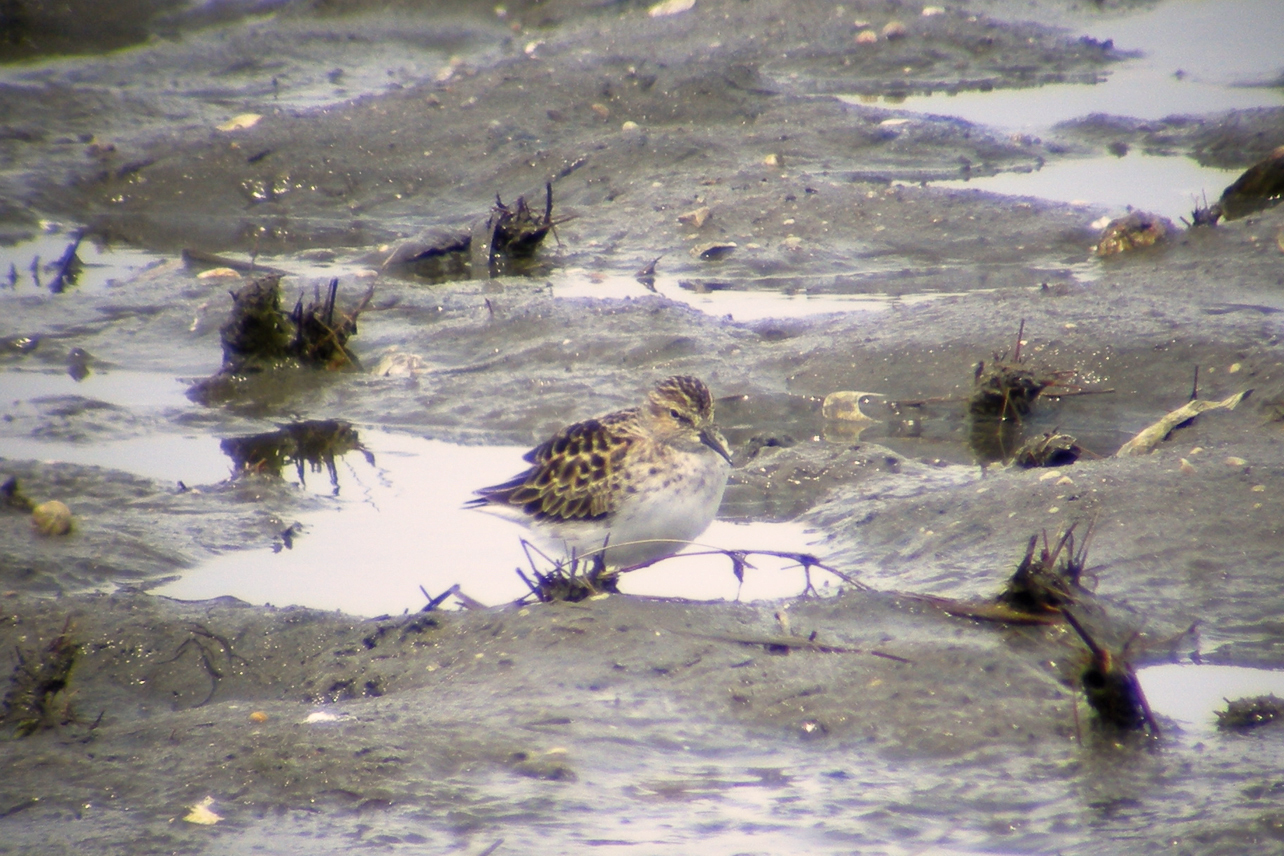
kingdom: Animalia
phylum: Chordata
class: Aves
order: Charadriiformes
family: Scolopacidae
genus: Calidris
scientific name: Calidris minutilla
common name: Least sandpiper
